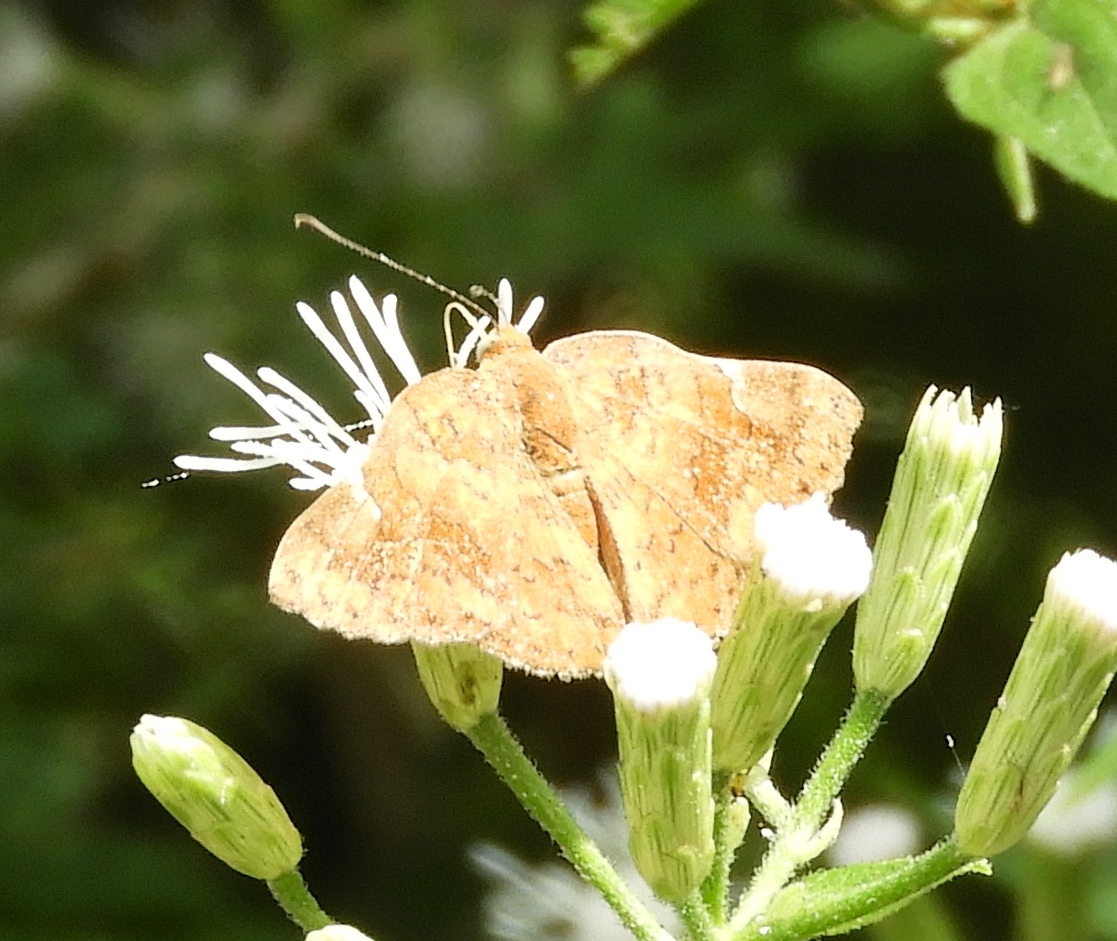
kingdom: Animalia
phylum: Arthropoda
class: Insecta
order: Lepidoptera
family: Riodinidae
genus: Curvie
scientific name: Curvie emesia
